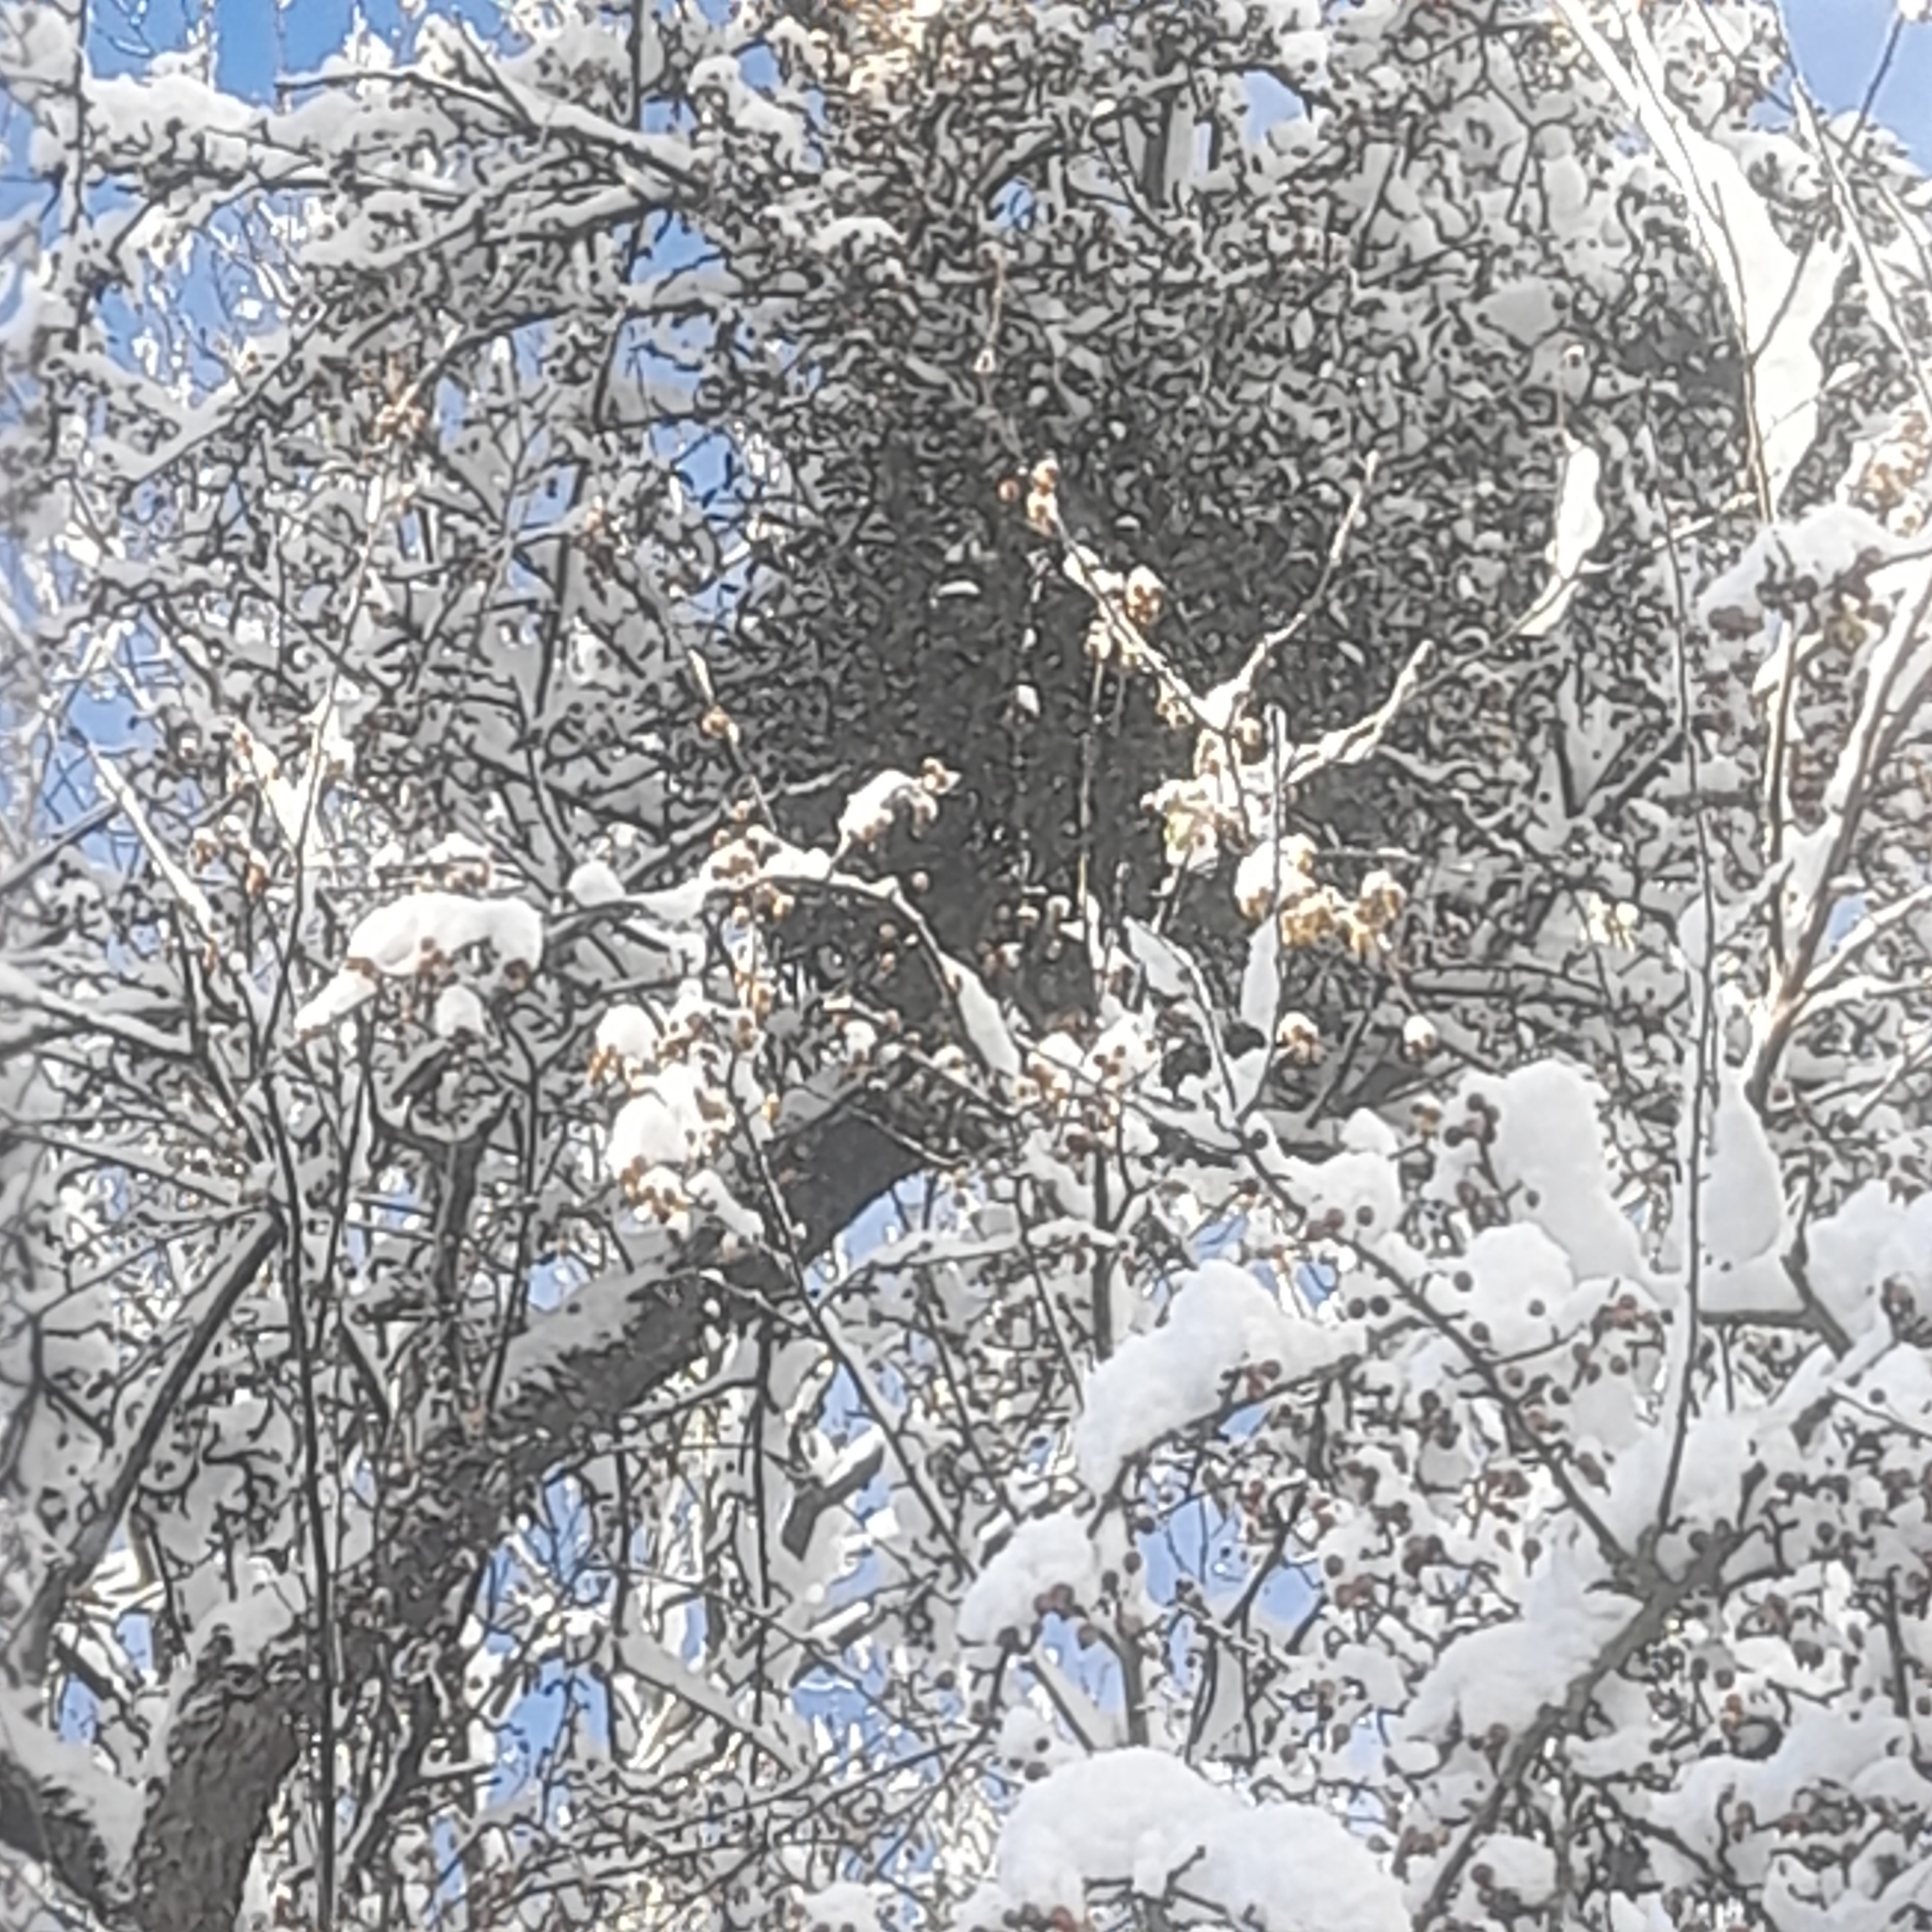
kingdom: Plantae
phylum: Tracheophyta
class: Magnoliopsida
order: Santalales
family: Viscaceae
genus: Viscum
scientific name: Viscum album
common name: Mistletoe
